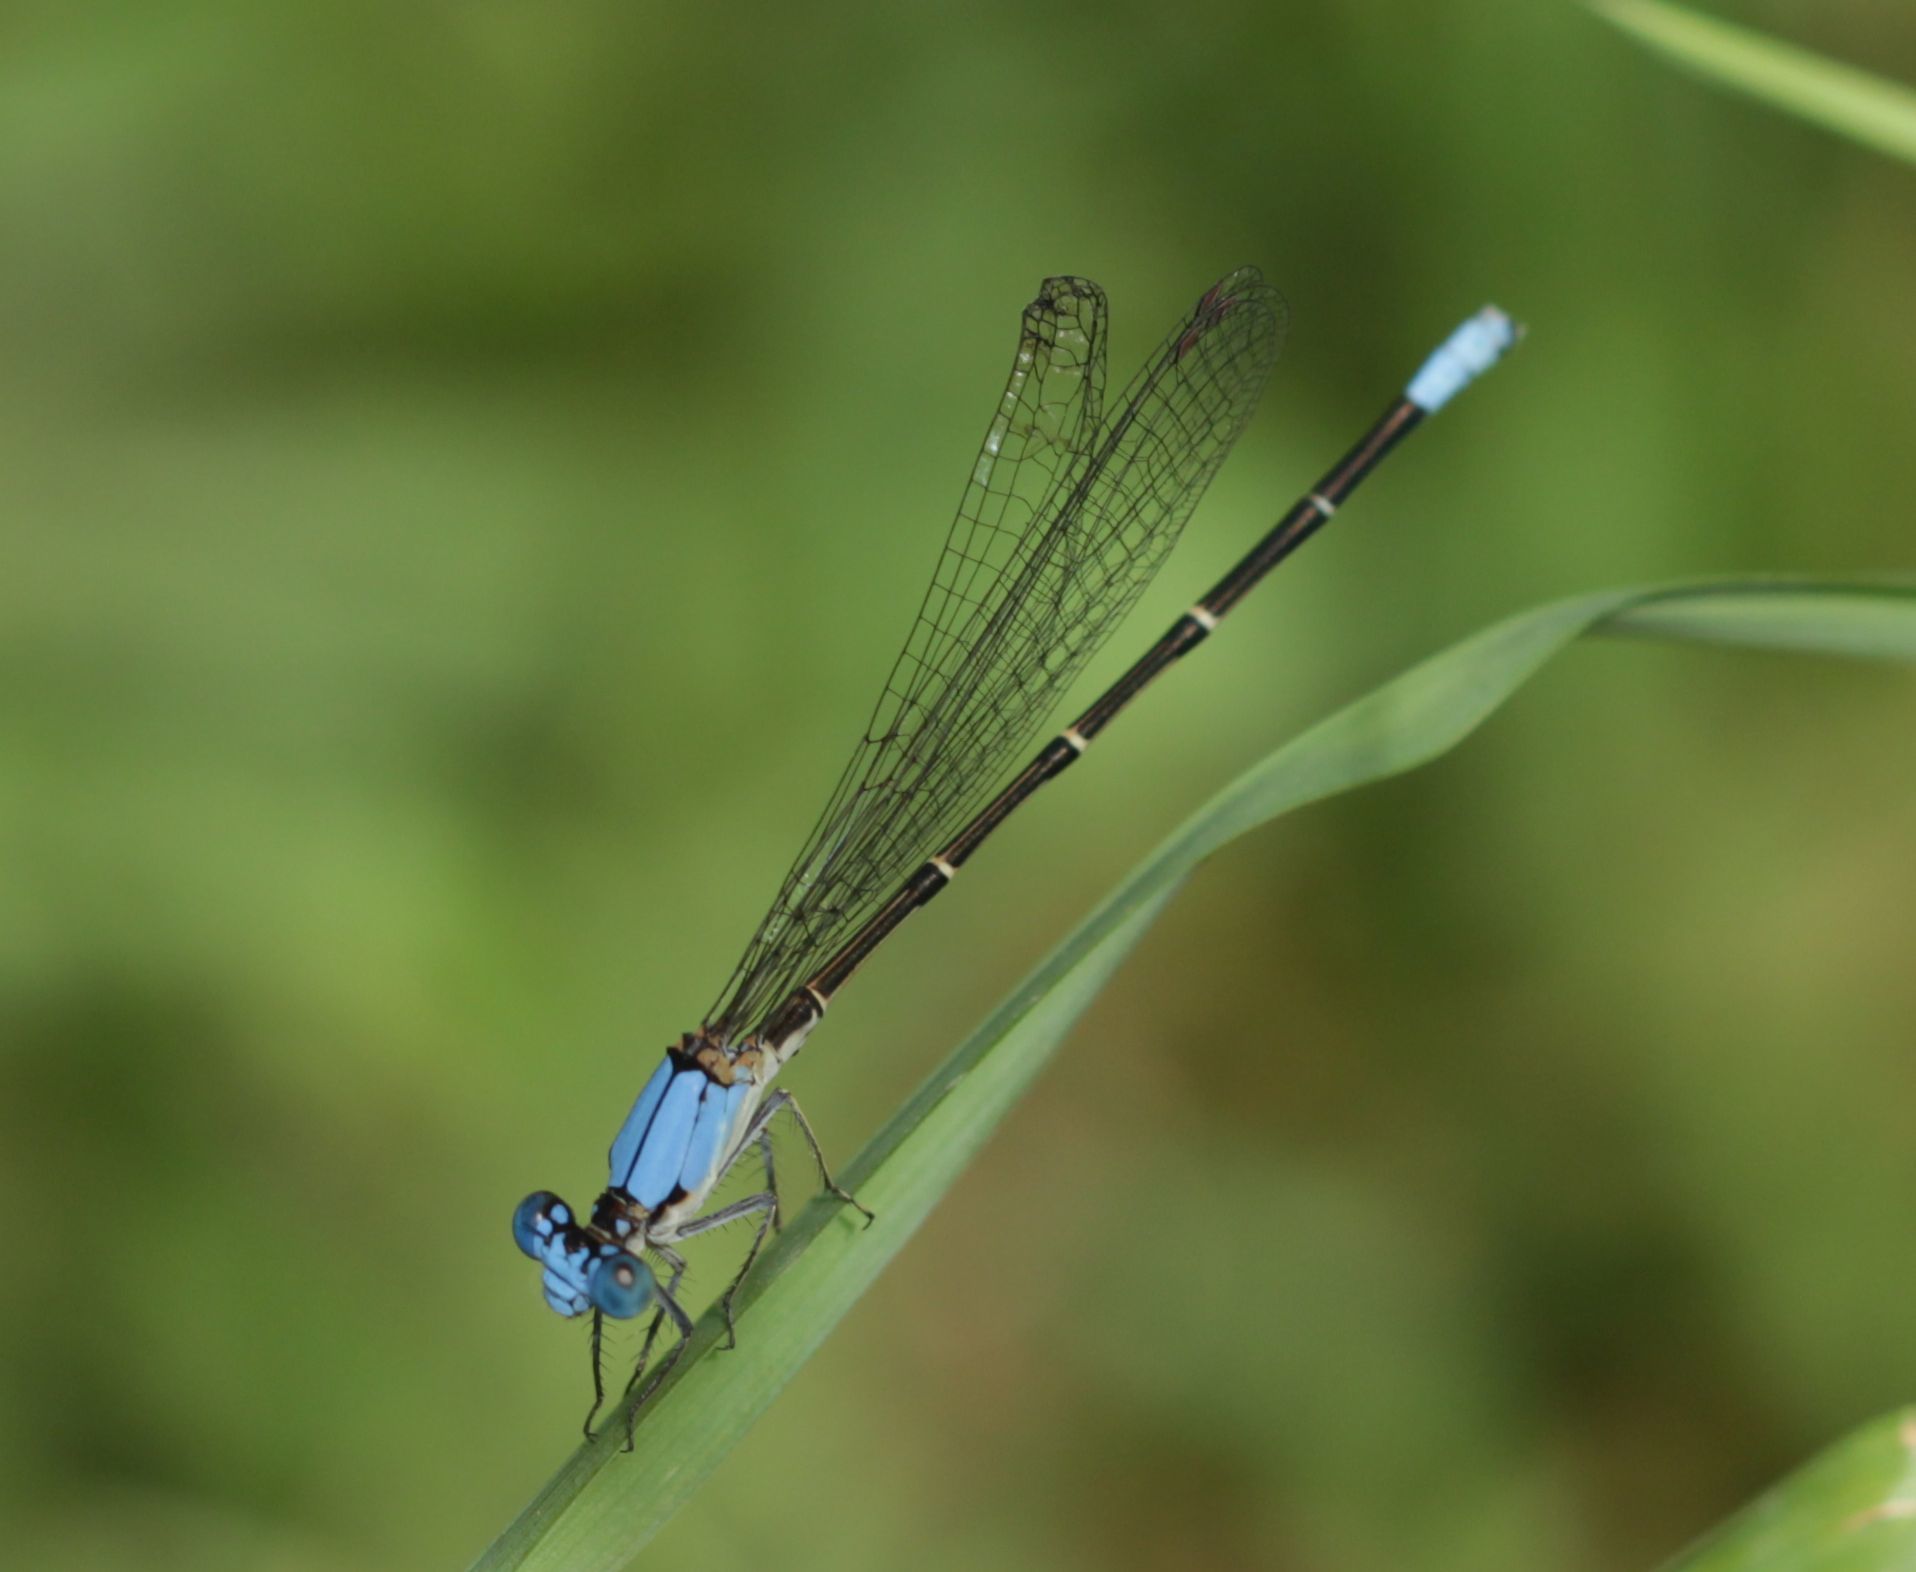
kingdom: Animalia
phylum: Arthropoda
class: Insecta
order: Odonata
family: Coenagrionidae
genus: Argia
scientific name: Argia apicalis
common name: Blue-fronted dancer
